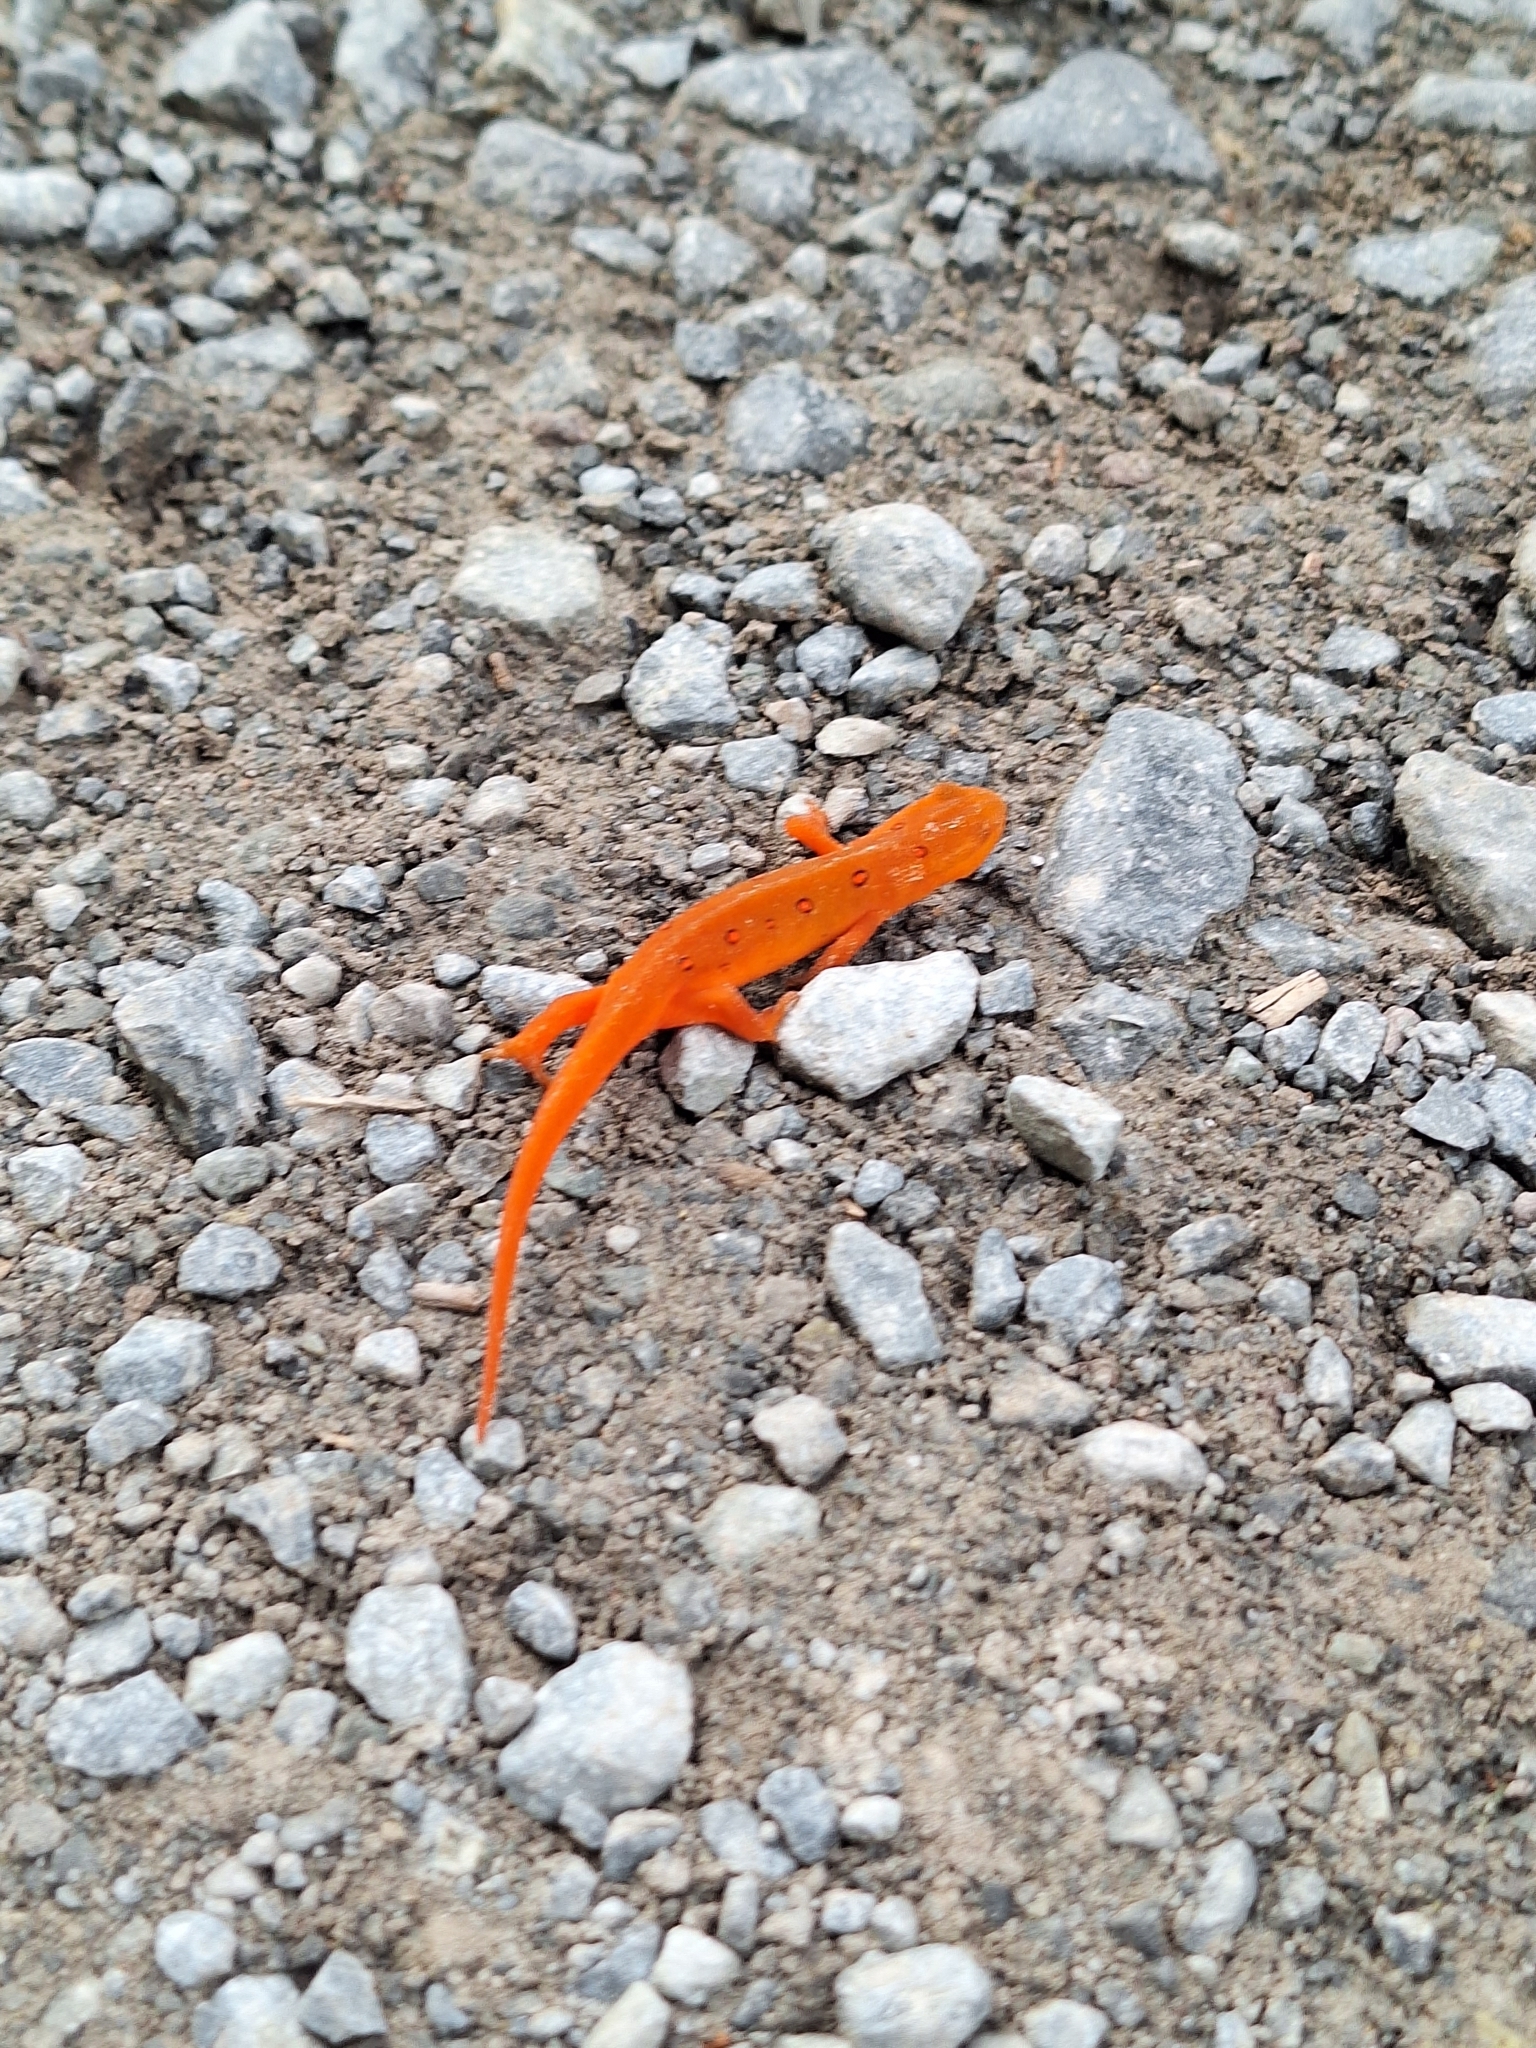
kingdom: Animalia
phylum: Chordata
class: Amphibia
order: Caudata
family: Salamandridae
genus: Notophthalmus
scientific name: Notophthalmus viridescens
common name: Eastern newt
